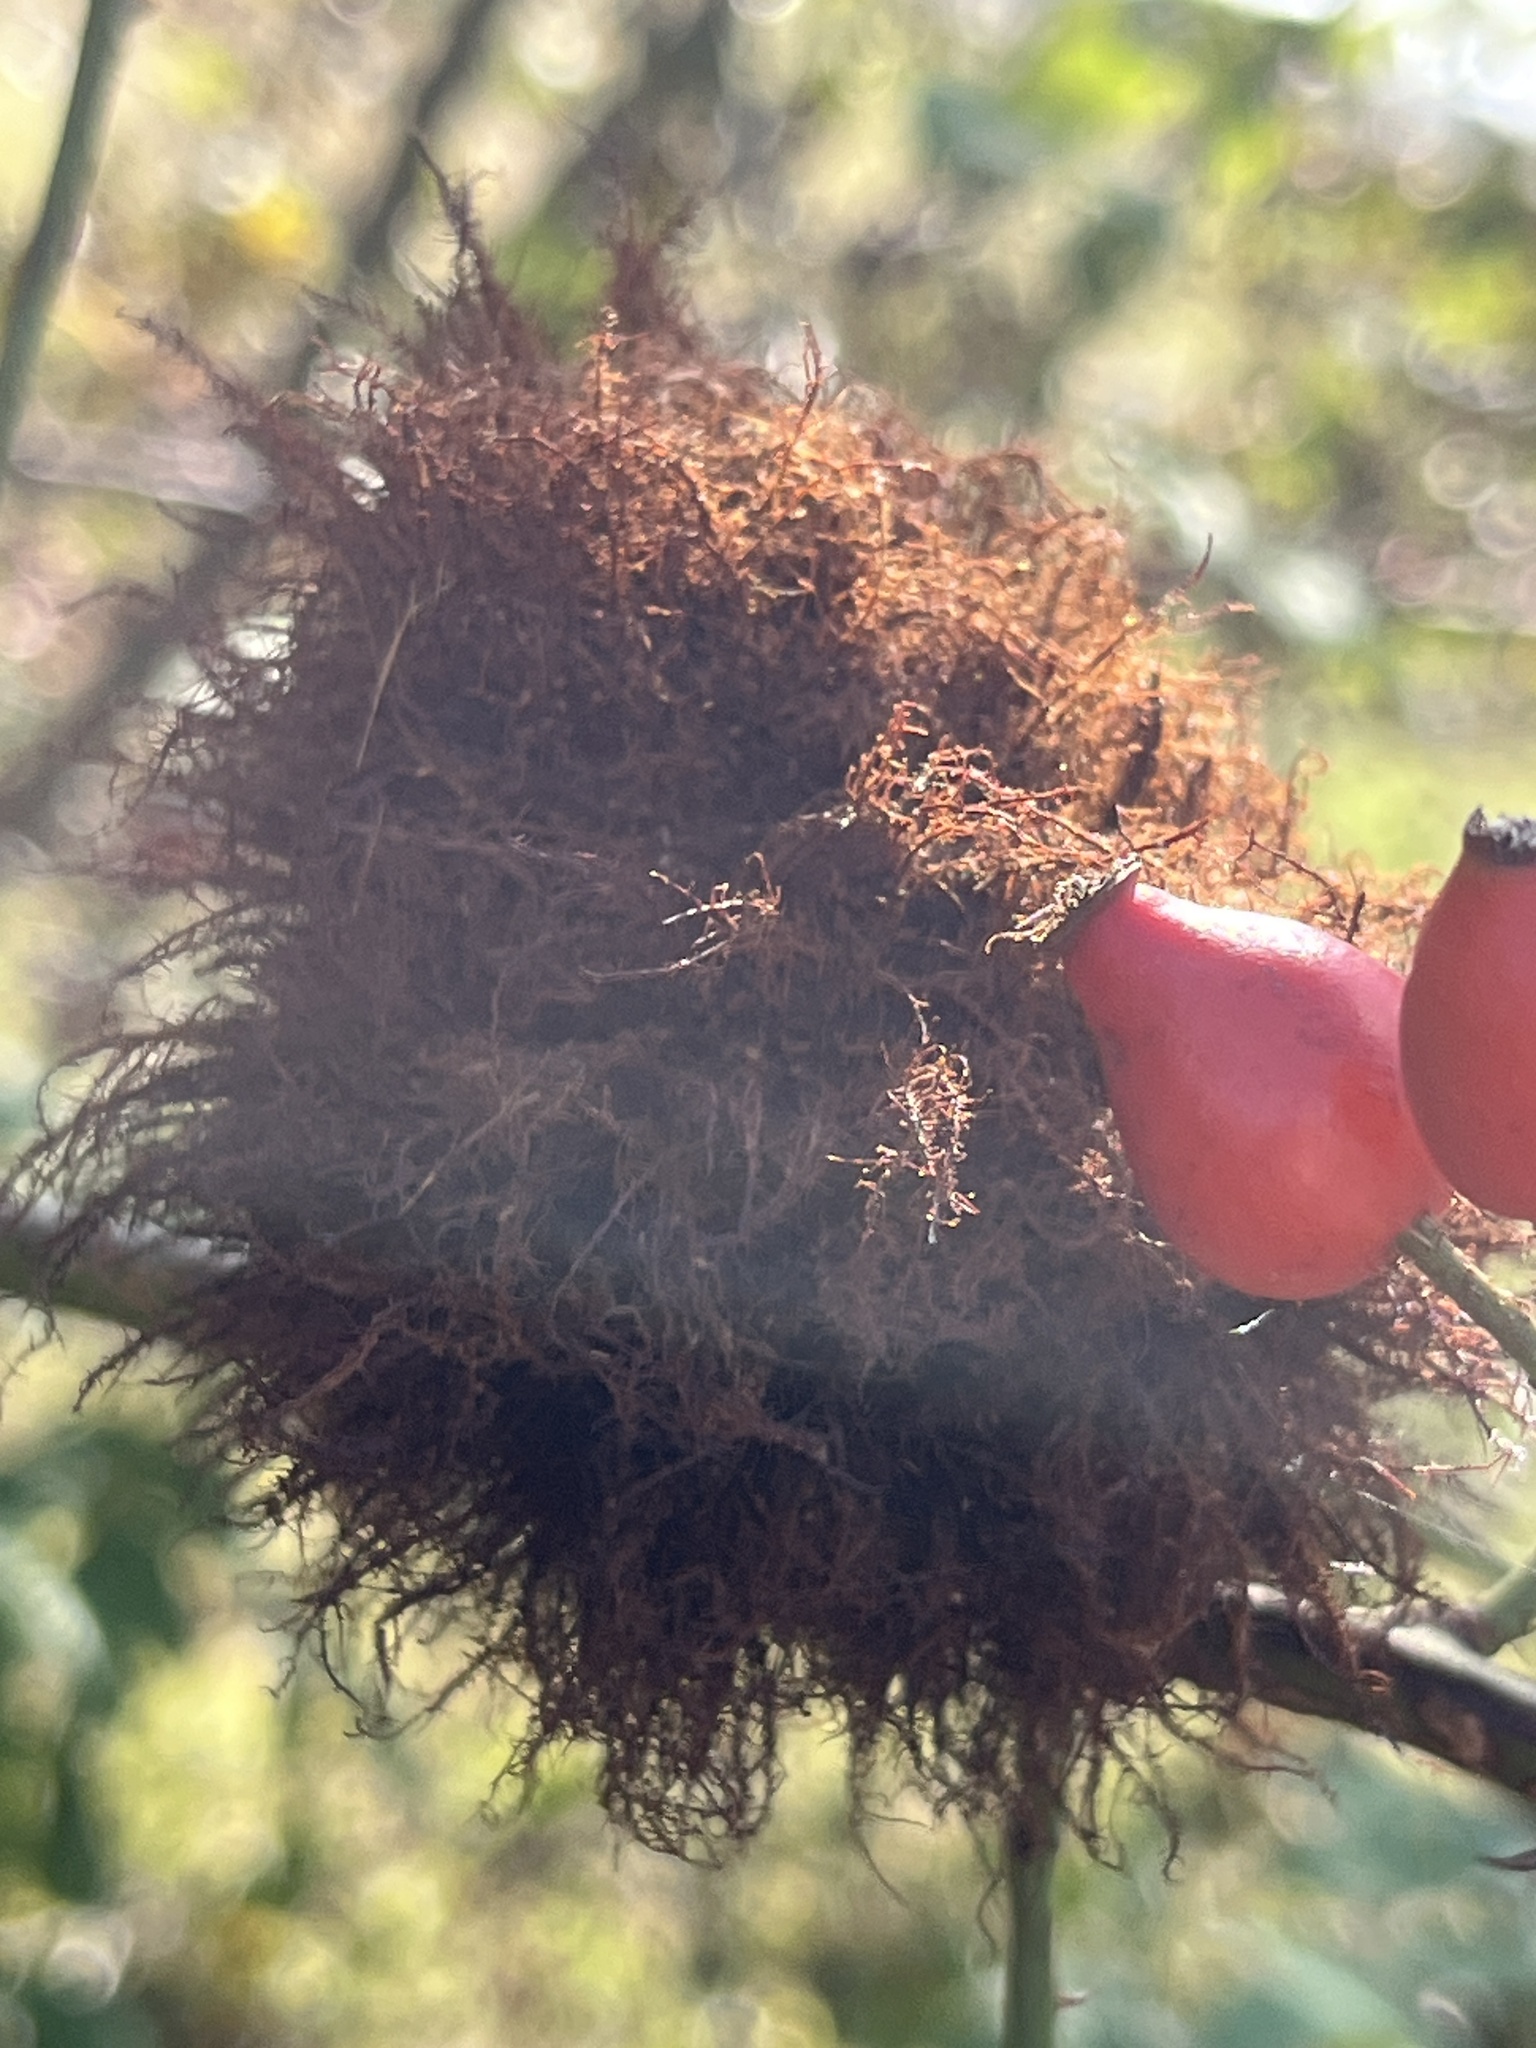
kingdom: Animalia
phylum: Arthropoda
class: Insecta
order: Hymenoptera
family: Cynipidae
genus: Diplolepis
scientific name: Diplolepis rosae
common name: Bedeguar gall
